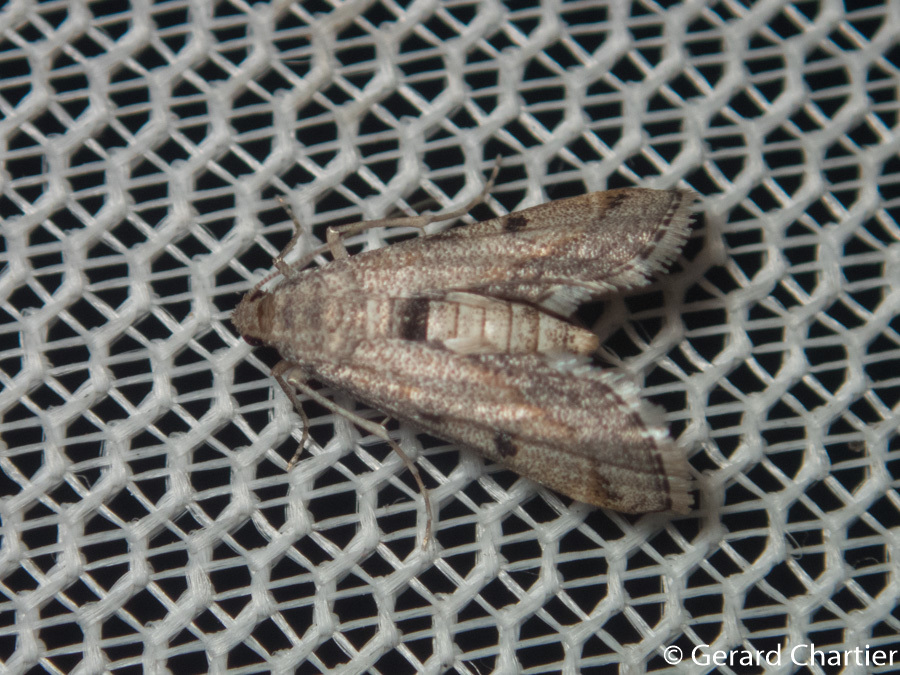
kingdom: Animalia
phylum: Arthropoda
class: Insecta
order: Lepidoptera
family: Crambidae
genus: Parapoynx
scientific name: Parapoynx longialata
